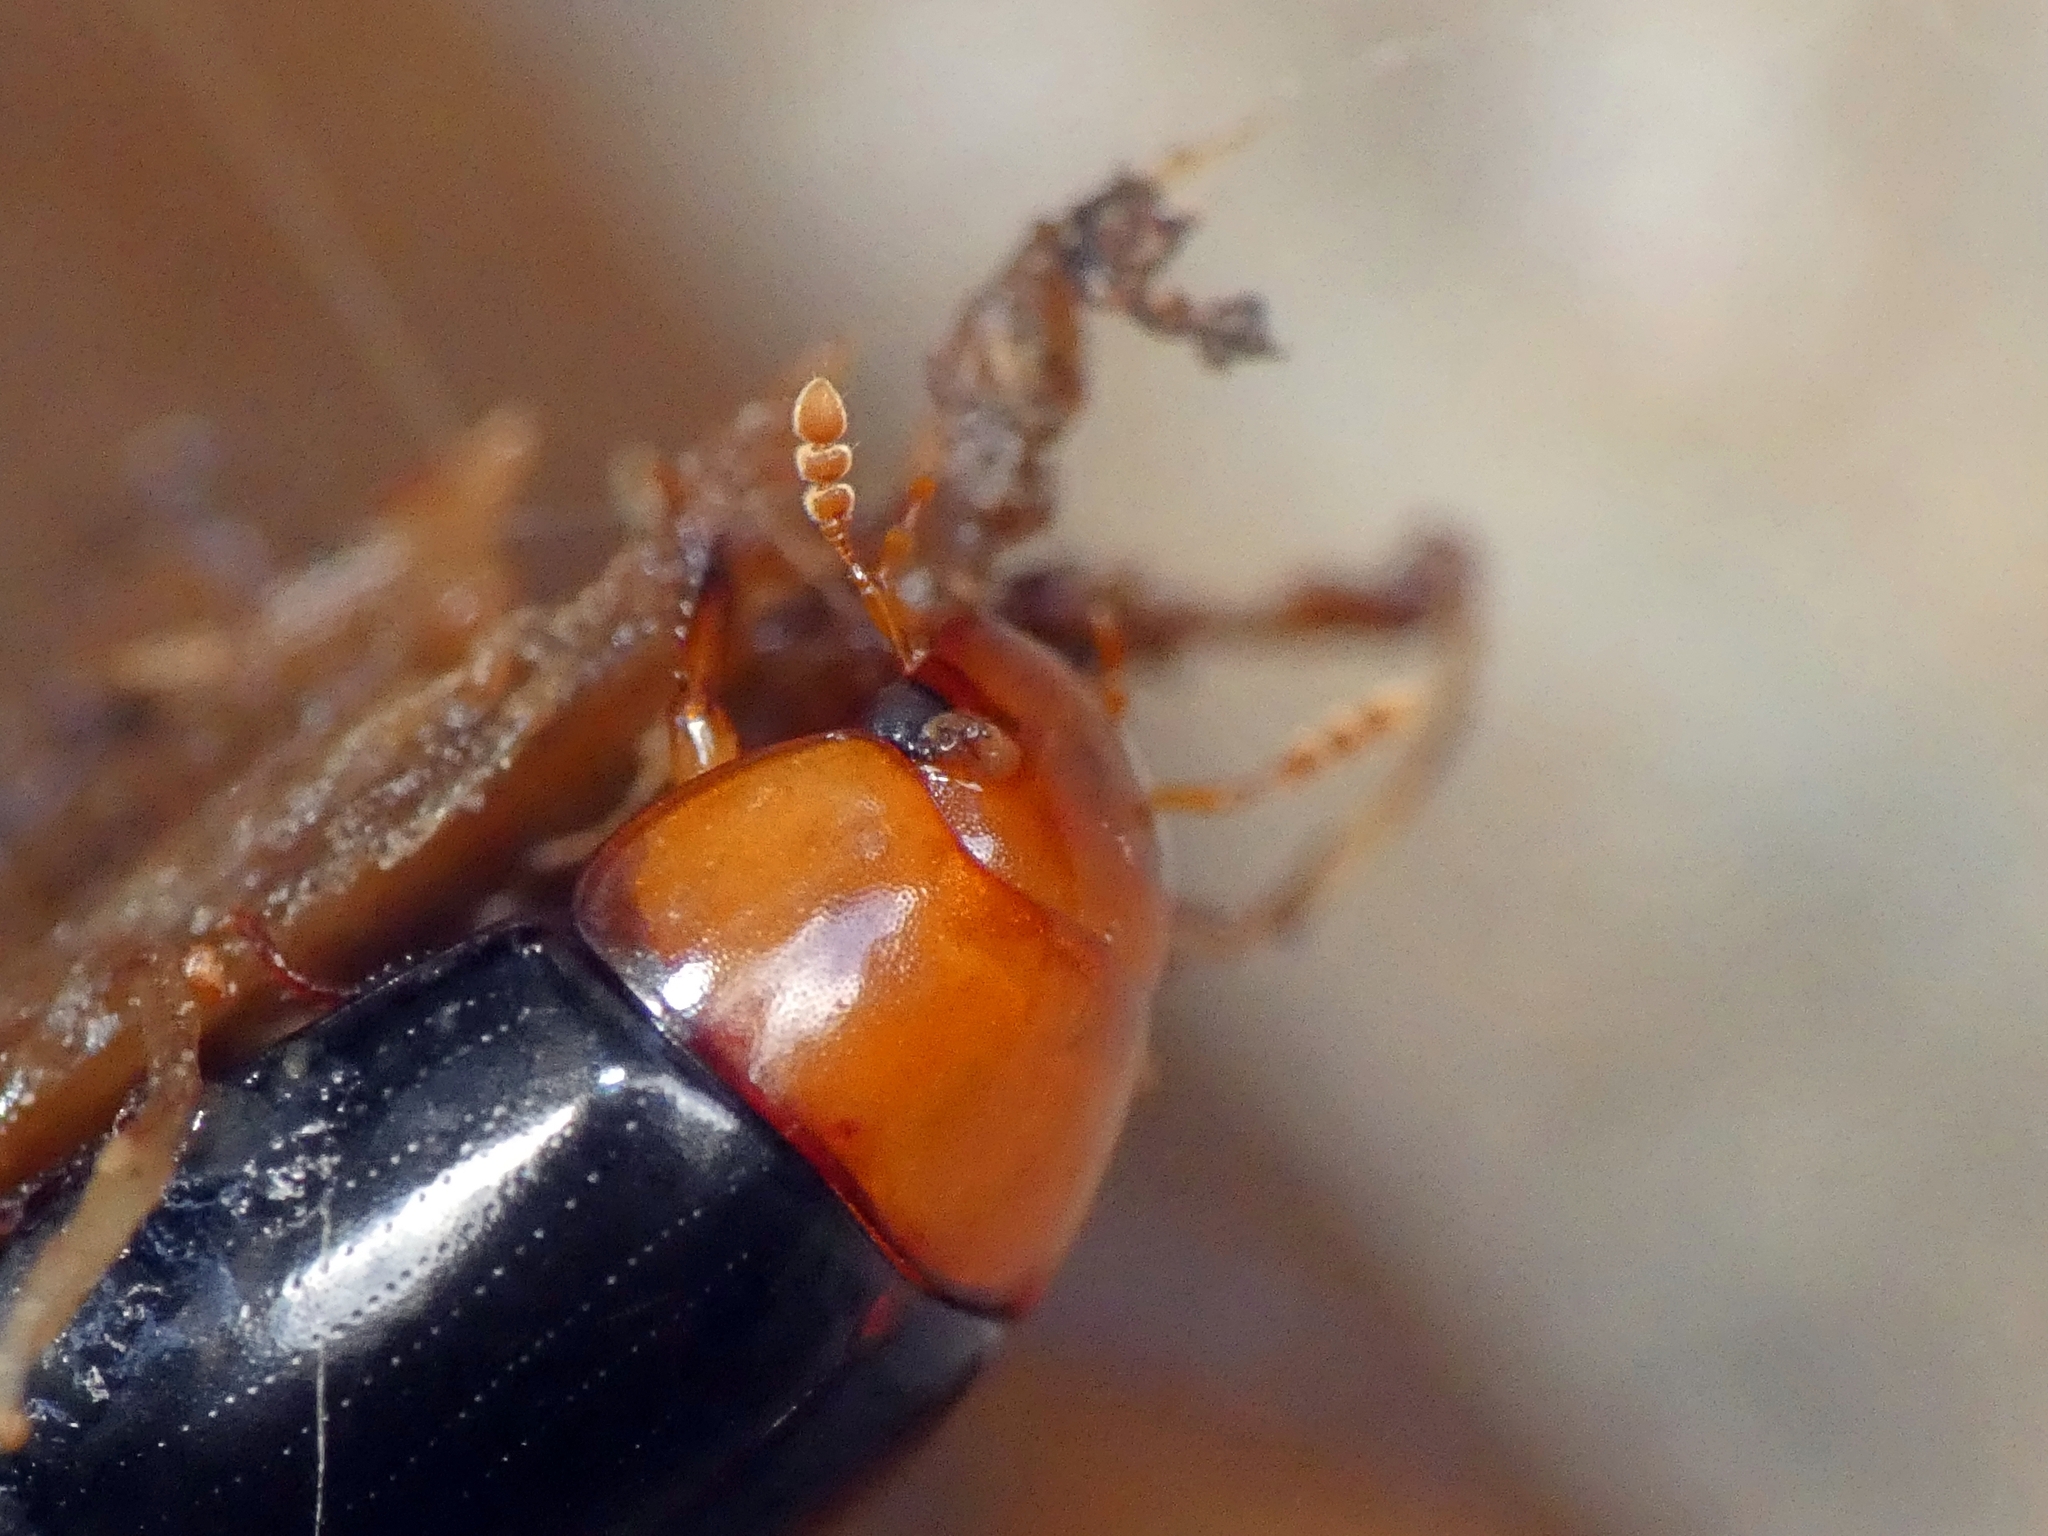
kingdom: Animalia
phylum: Arthropoda
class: Insecta
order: Coleoptera
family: Hydrophilidae
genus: Dactylosternum
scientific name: Dactylosternum dytiscoides
